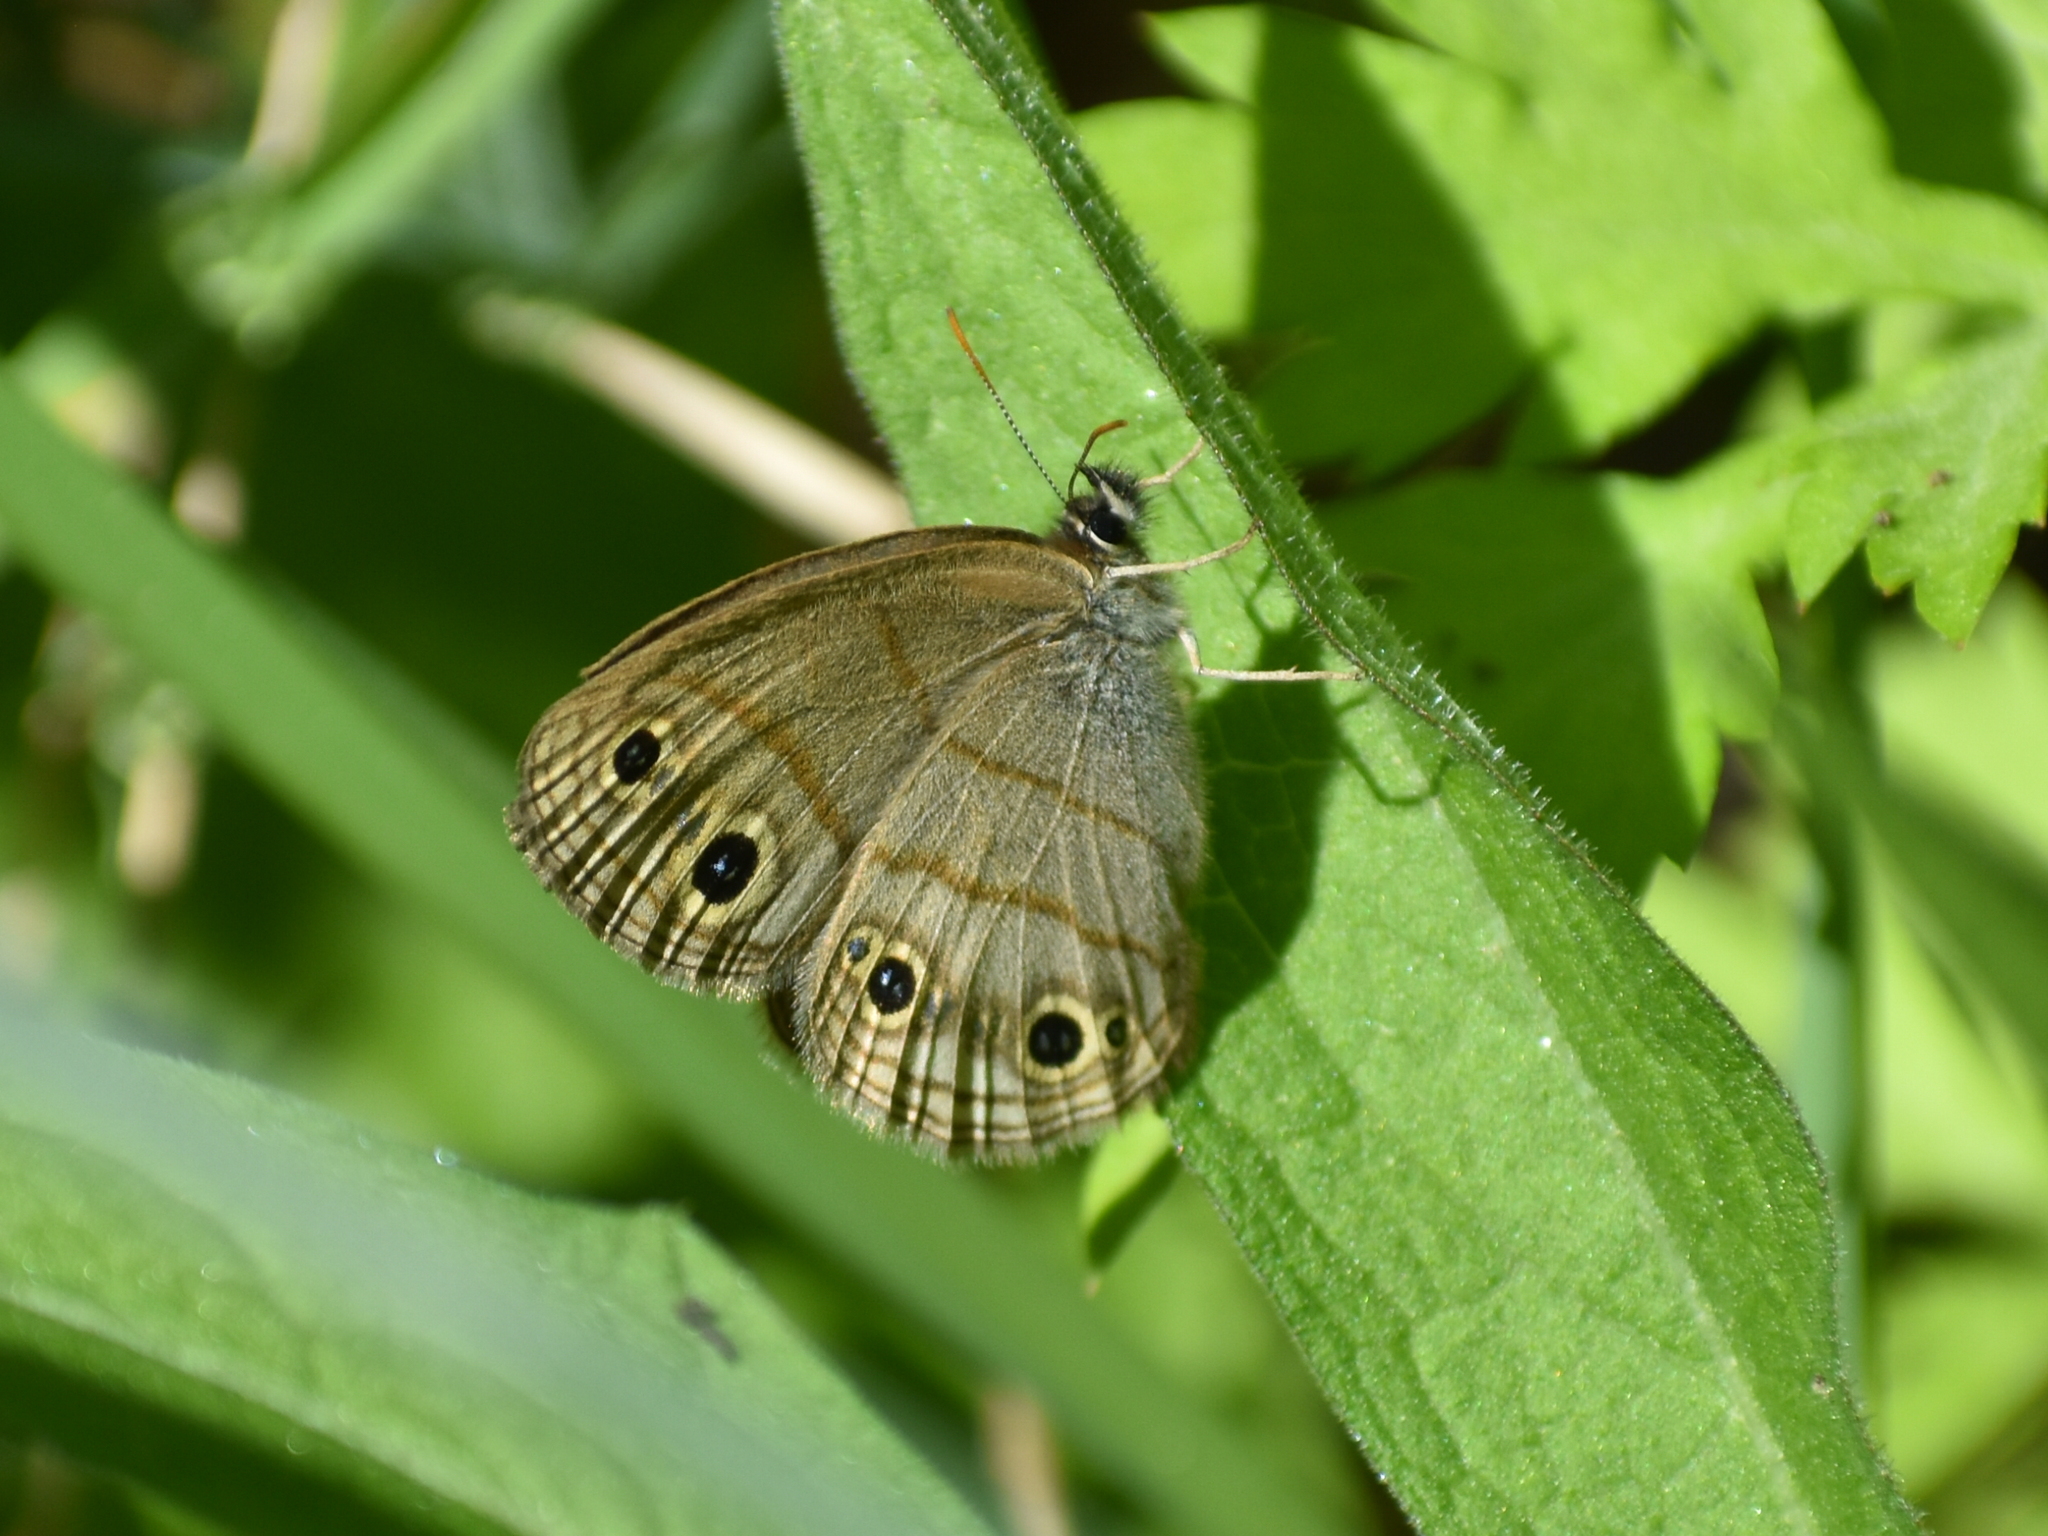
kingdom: Animalia
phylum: Arthropoda
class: Insecta
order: Lepidoptera
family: Nymphalidae
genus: Euptychia
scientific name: Euptychia cymela
